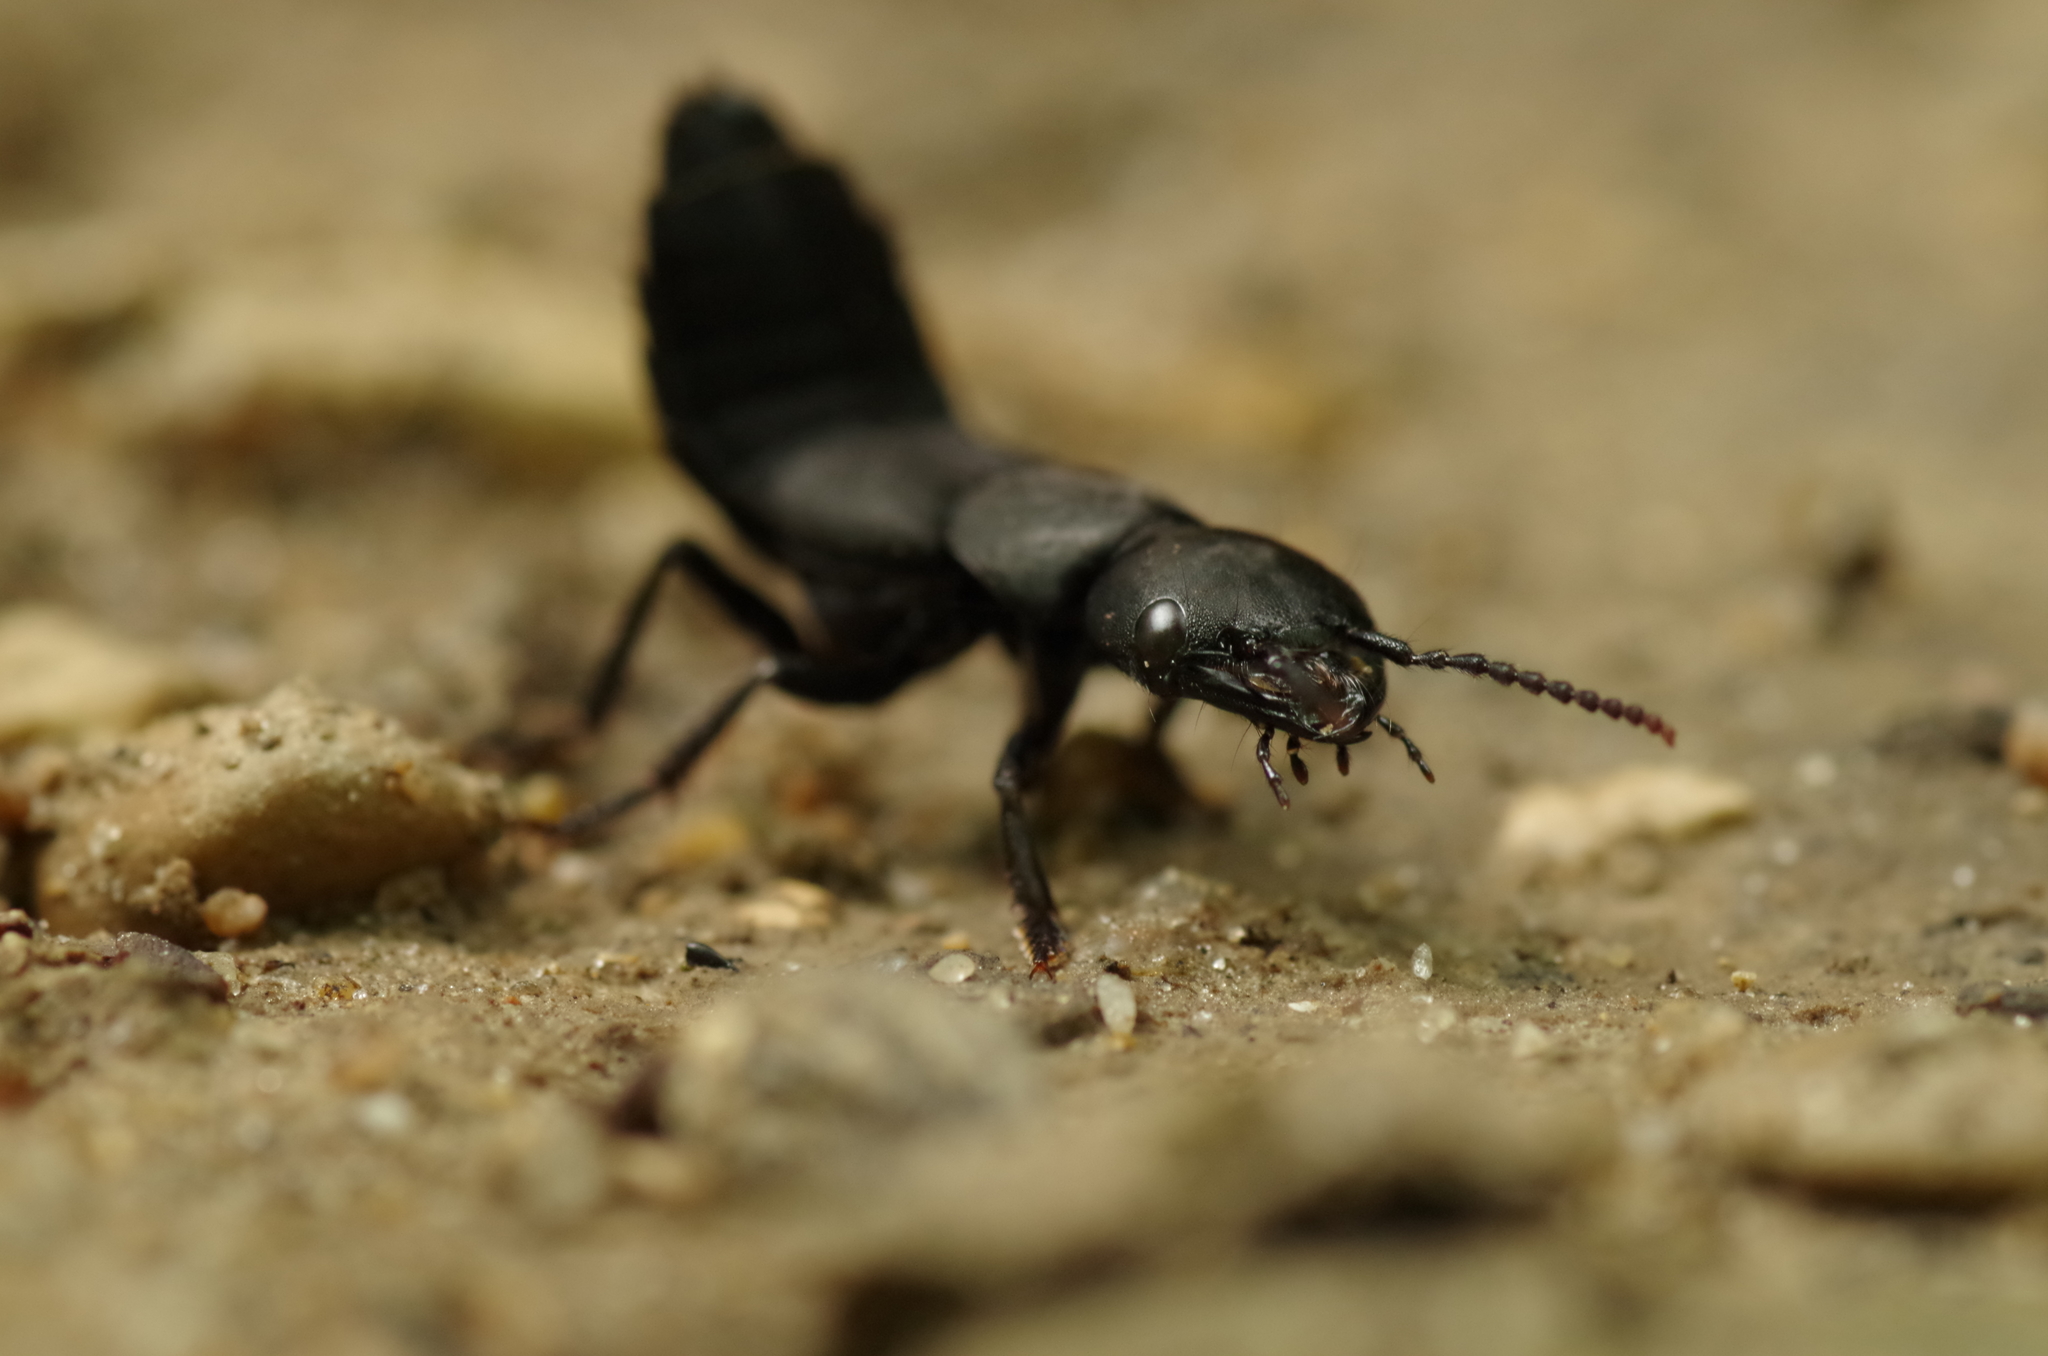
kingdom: Animalia
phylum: Arthropoda
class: Insecta
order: Coleoptera
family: Staphylinidae
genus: Ocypus
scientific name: Ocypus olens
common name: Devil's coach-horse
